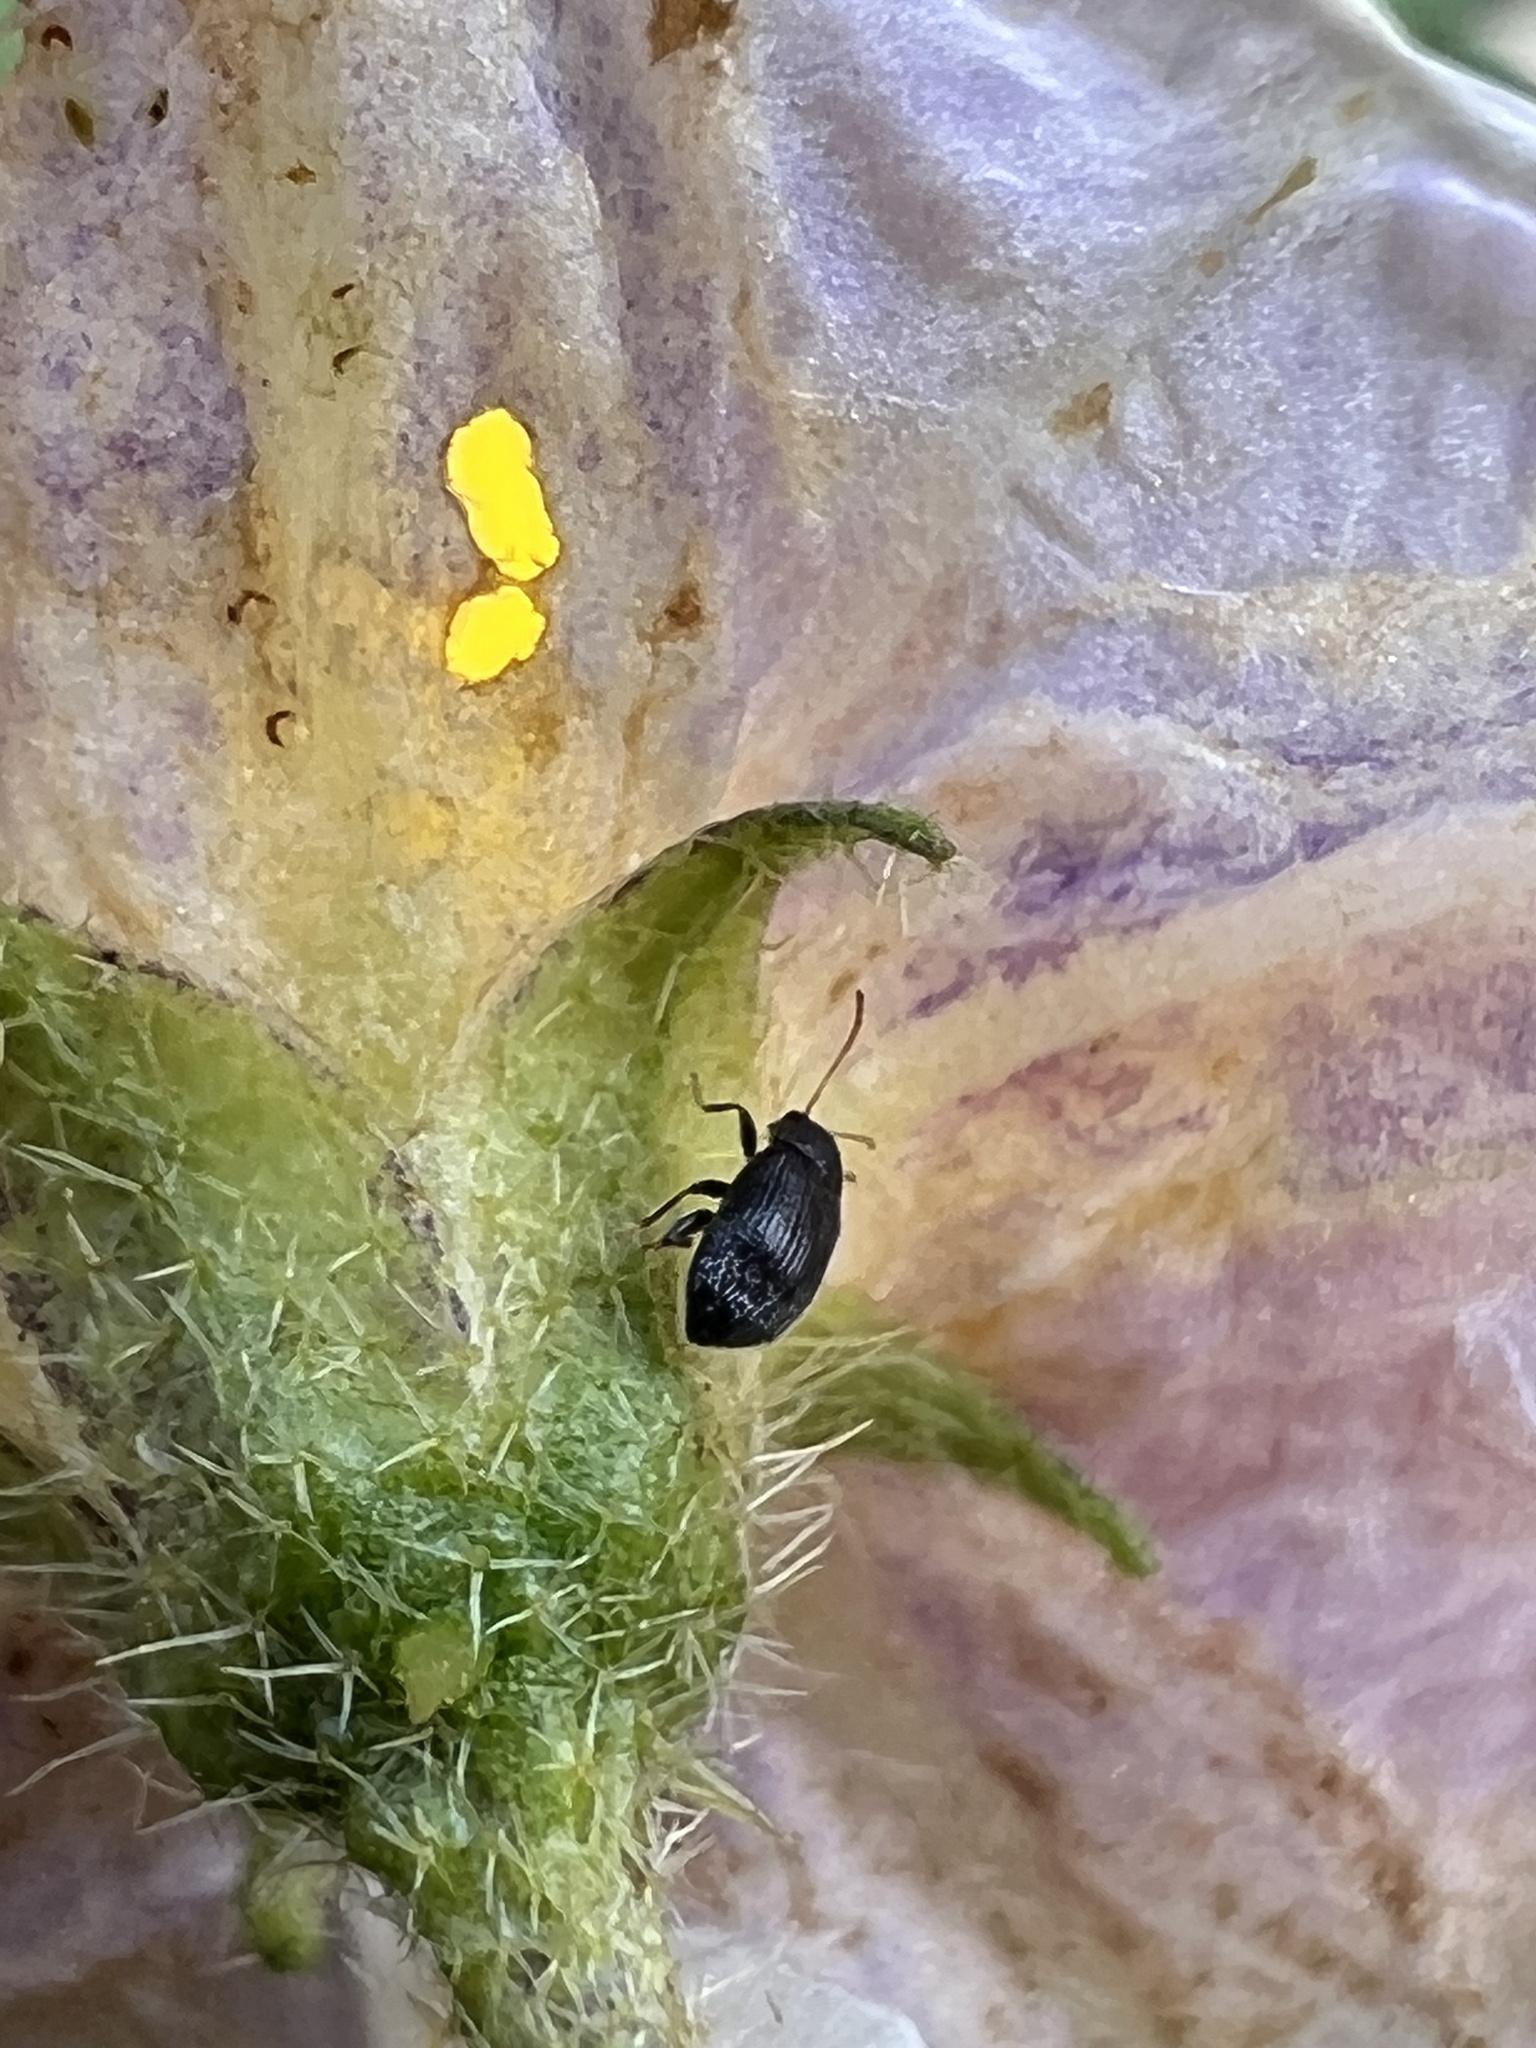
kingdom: Animalia
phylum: Arthropoda
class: Insecta
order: Coleoptera
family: Chrysomelidae
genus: Epitrix
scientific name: Epitrix fuscula
